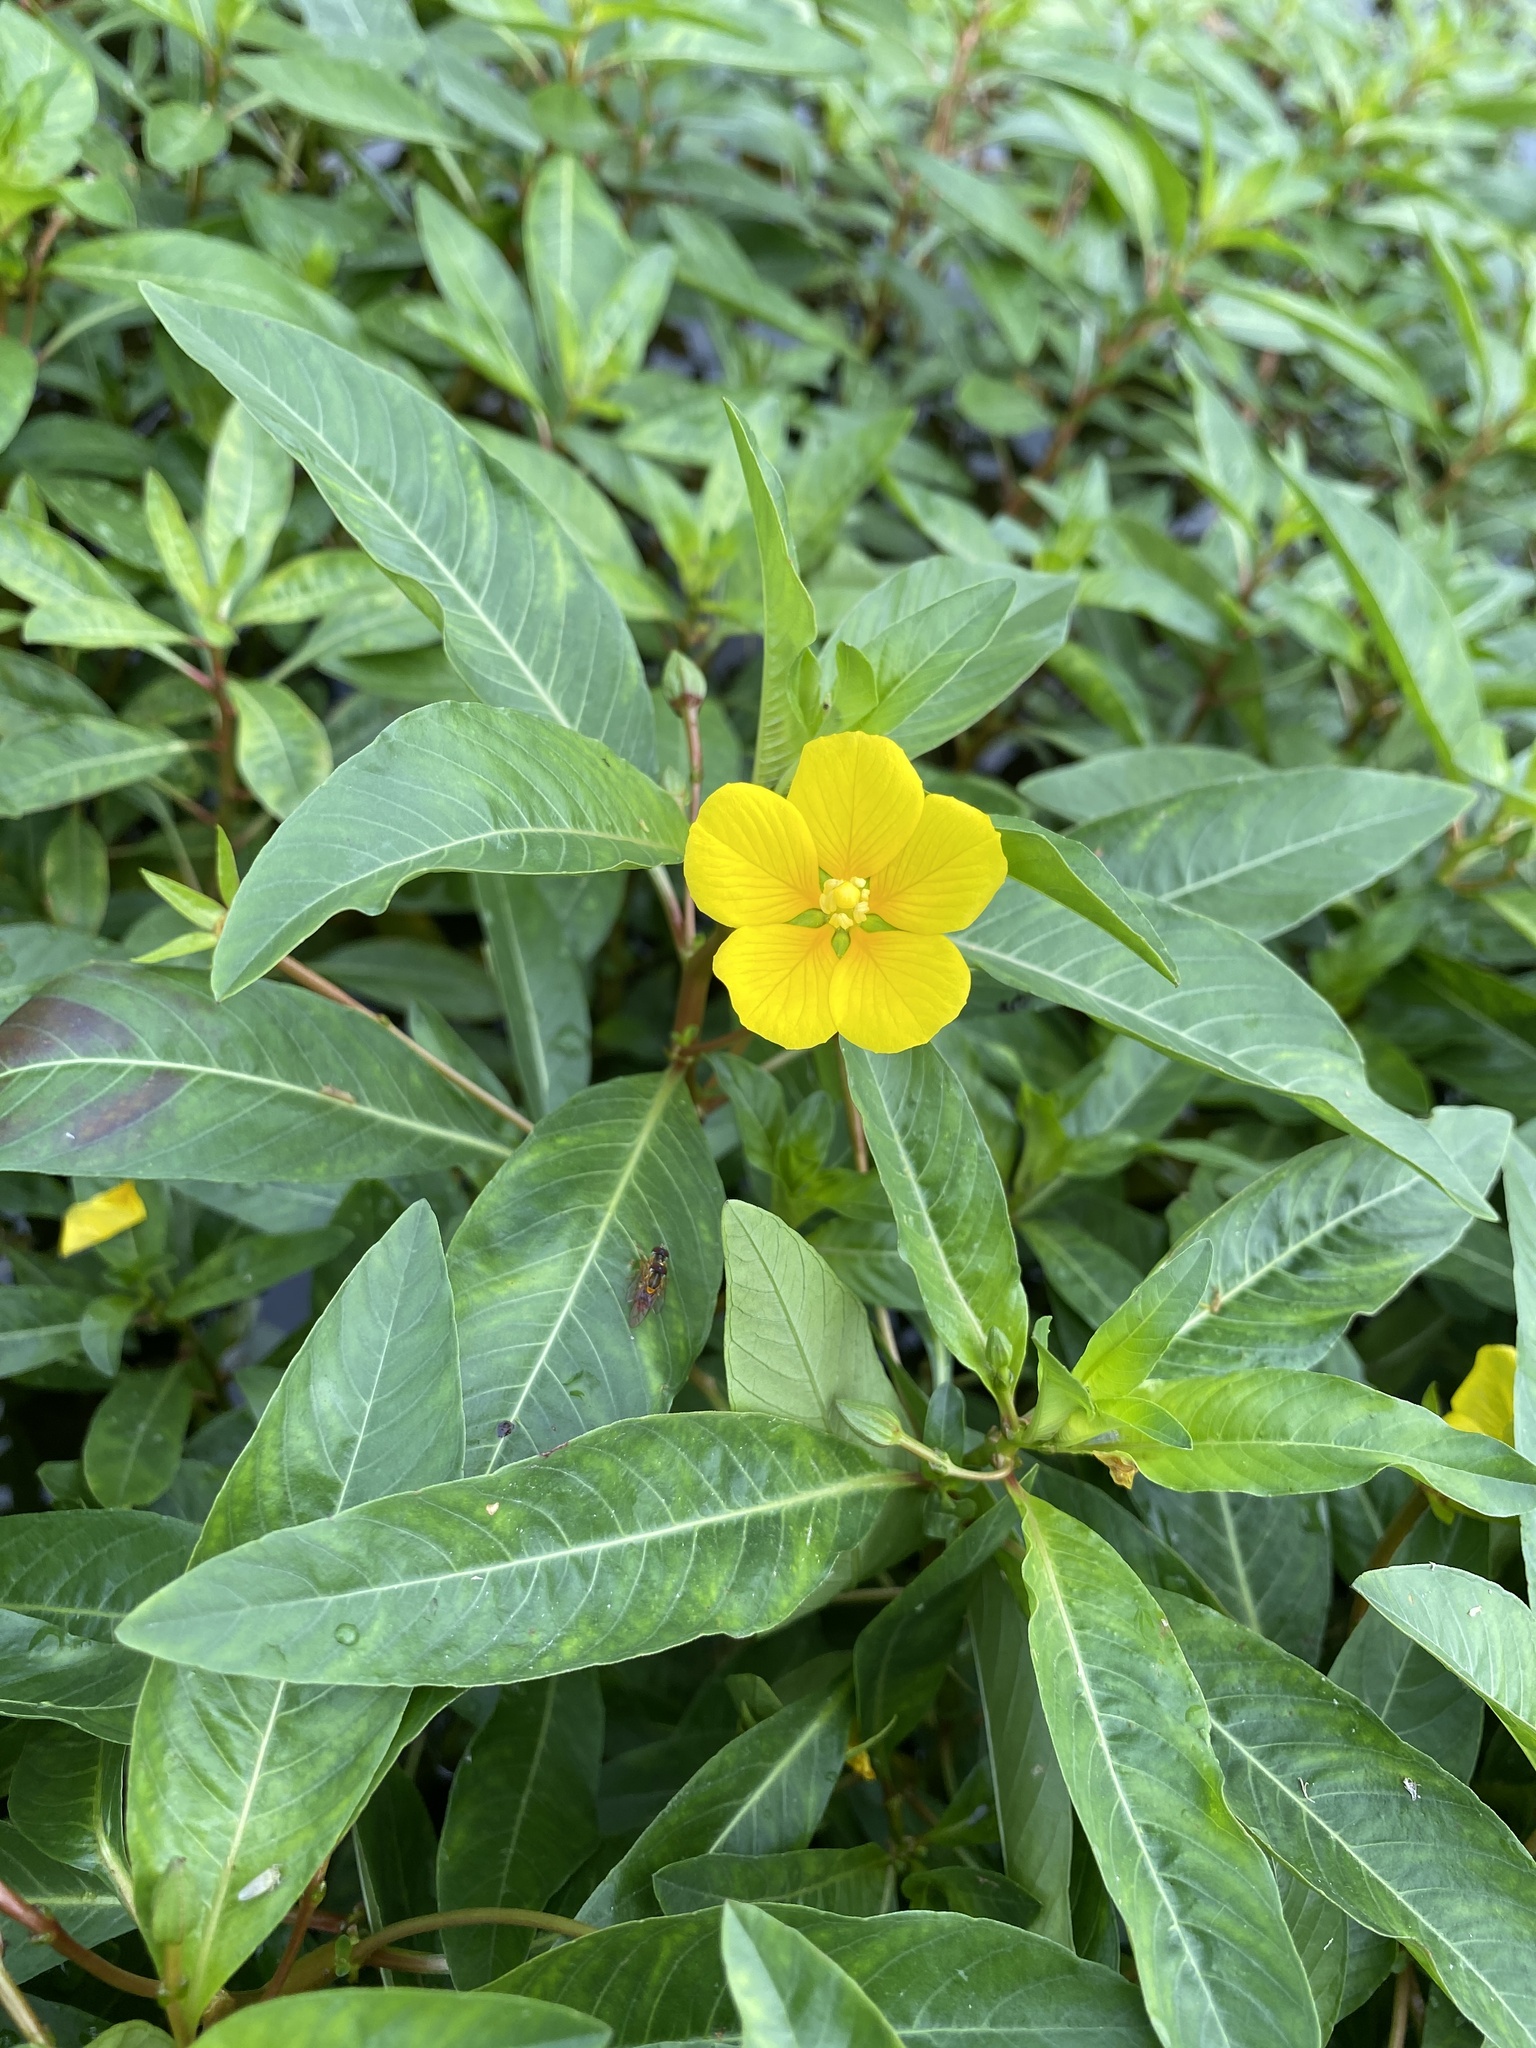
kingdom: Plantae
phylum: Tracheophyta
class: Magnoliopsida
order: Myrtales
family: Onagraceae
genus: Ludwigia
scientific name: Ludwigia peploides
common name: Floating primrose-willow
